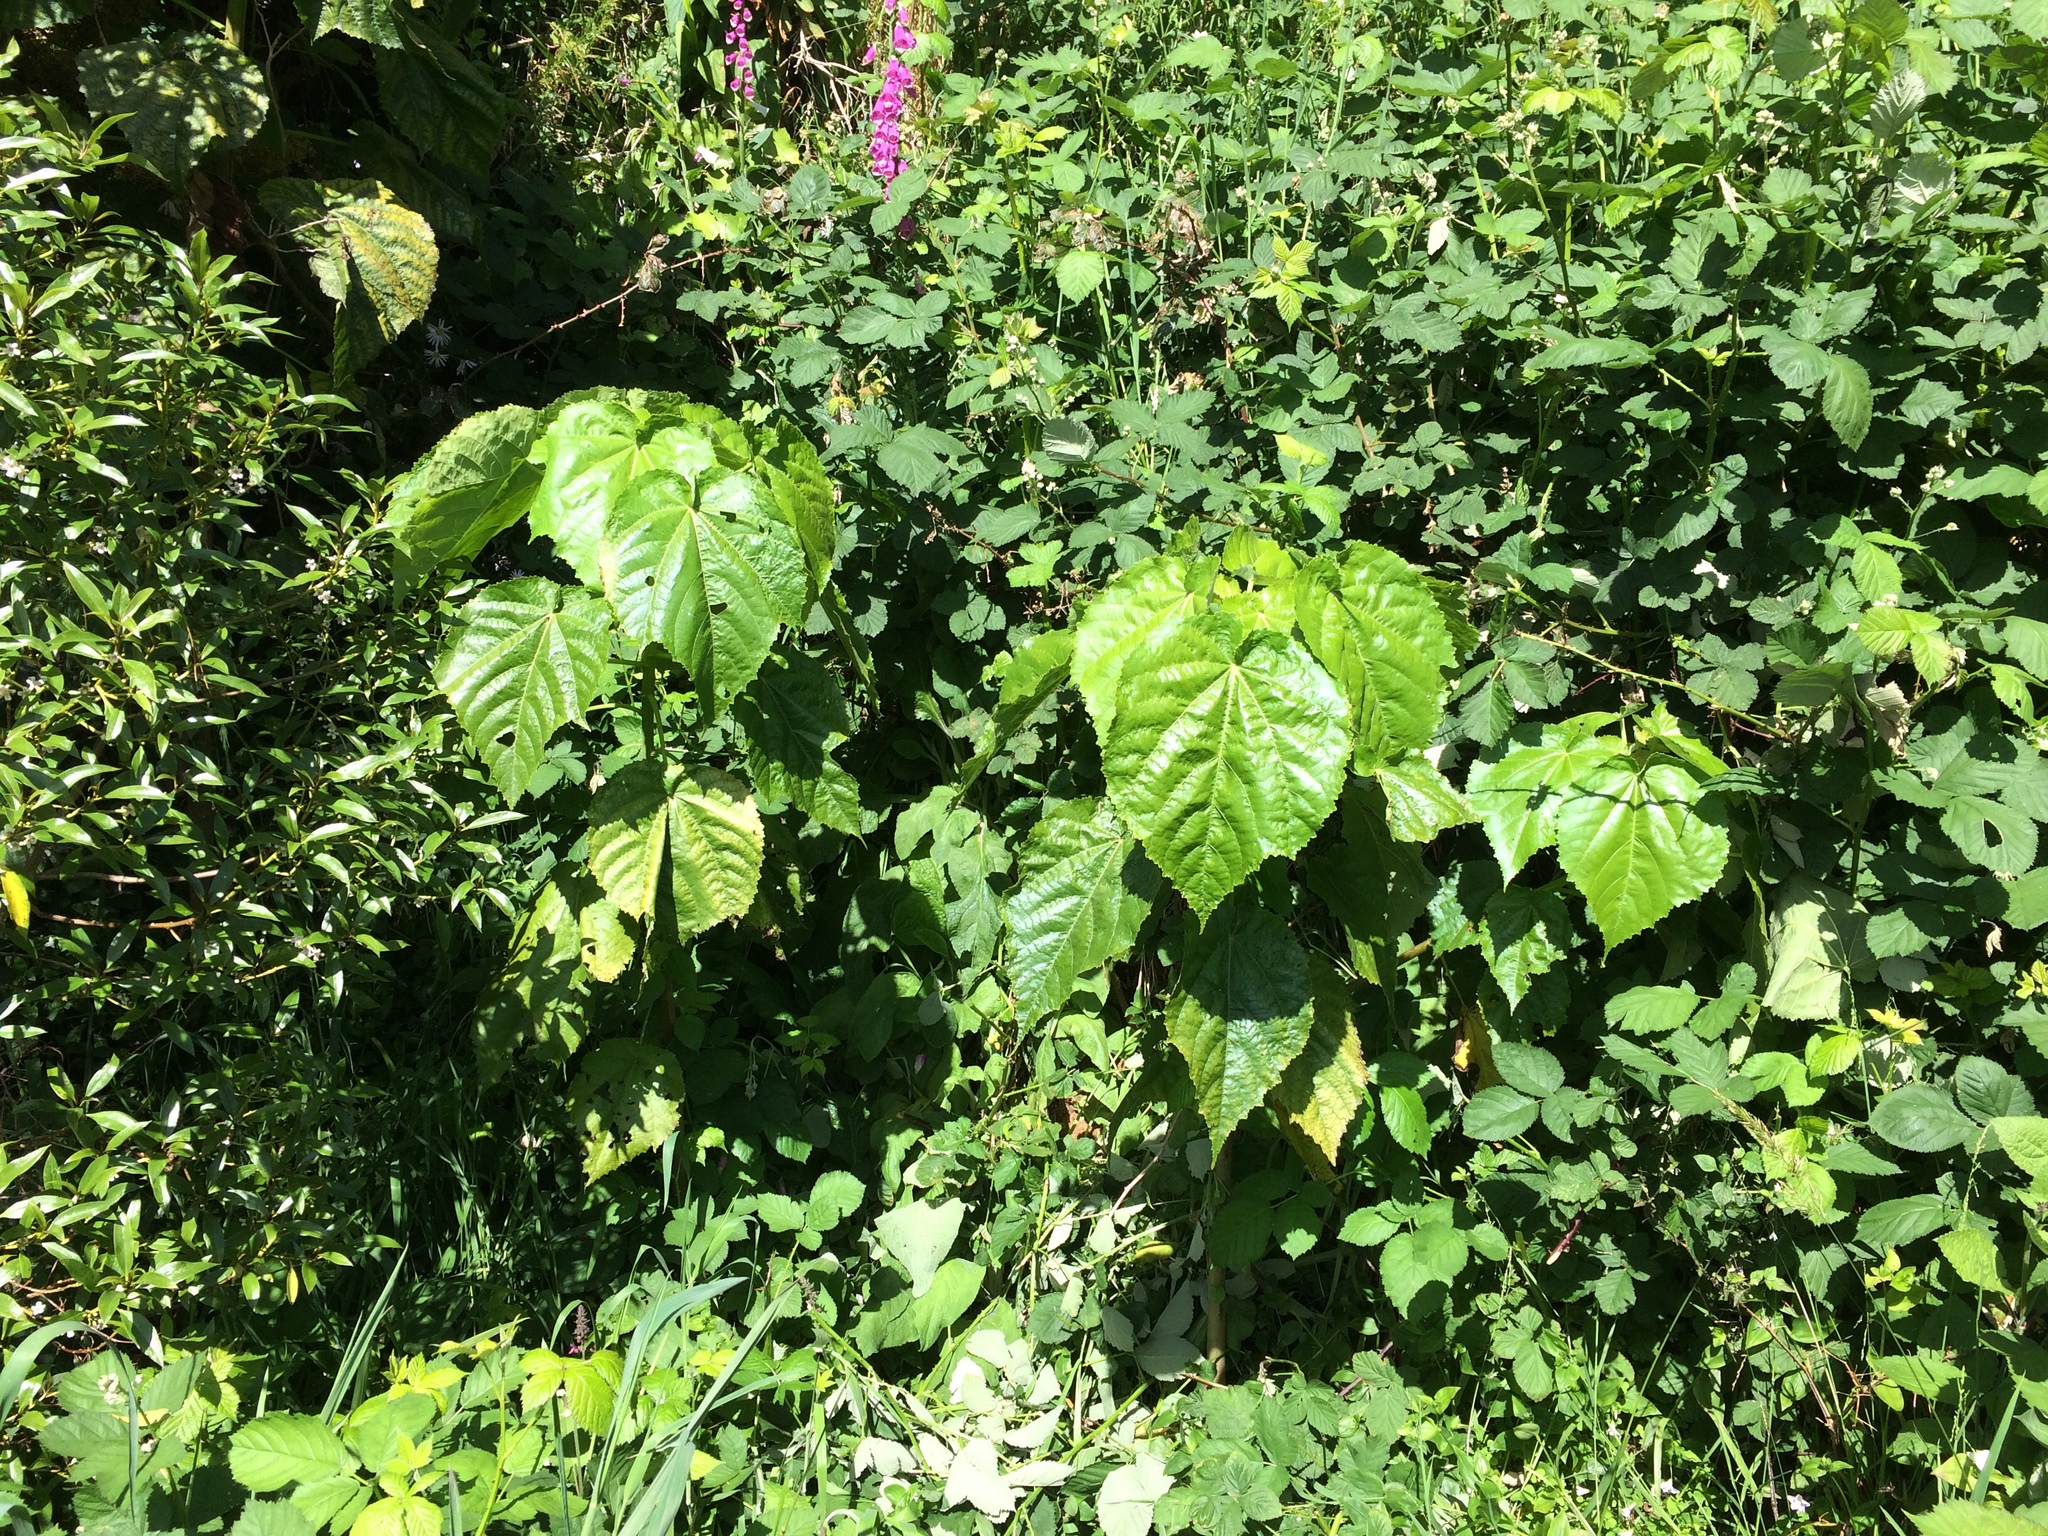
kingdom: Plantae
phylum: Tracheophyta
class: Magnoliopsida
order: Malvales
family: Malvaceae
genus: Entelea
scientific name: Entelea arborescens
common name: New zealand-mulberry
